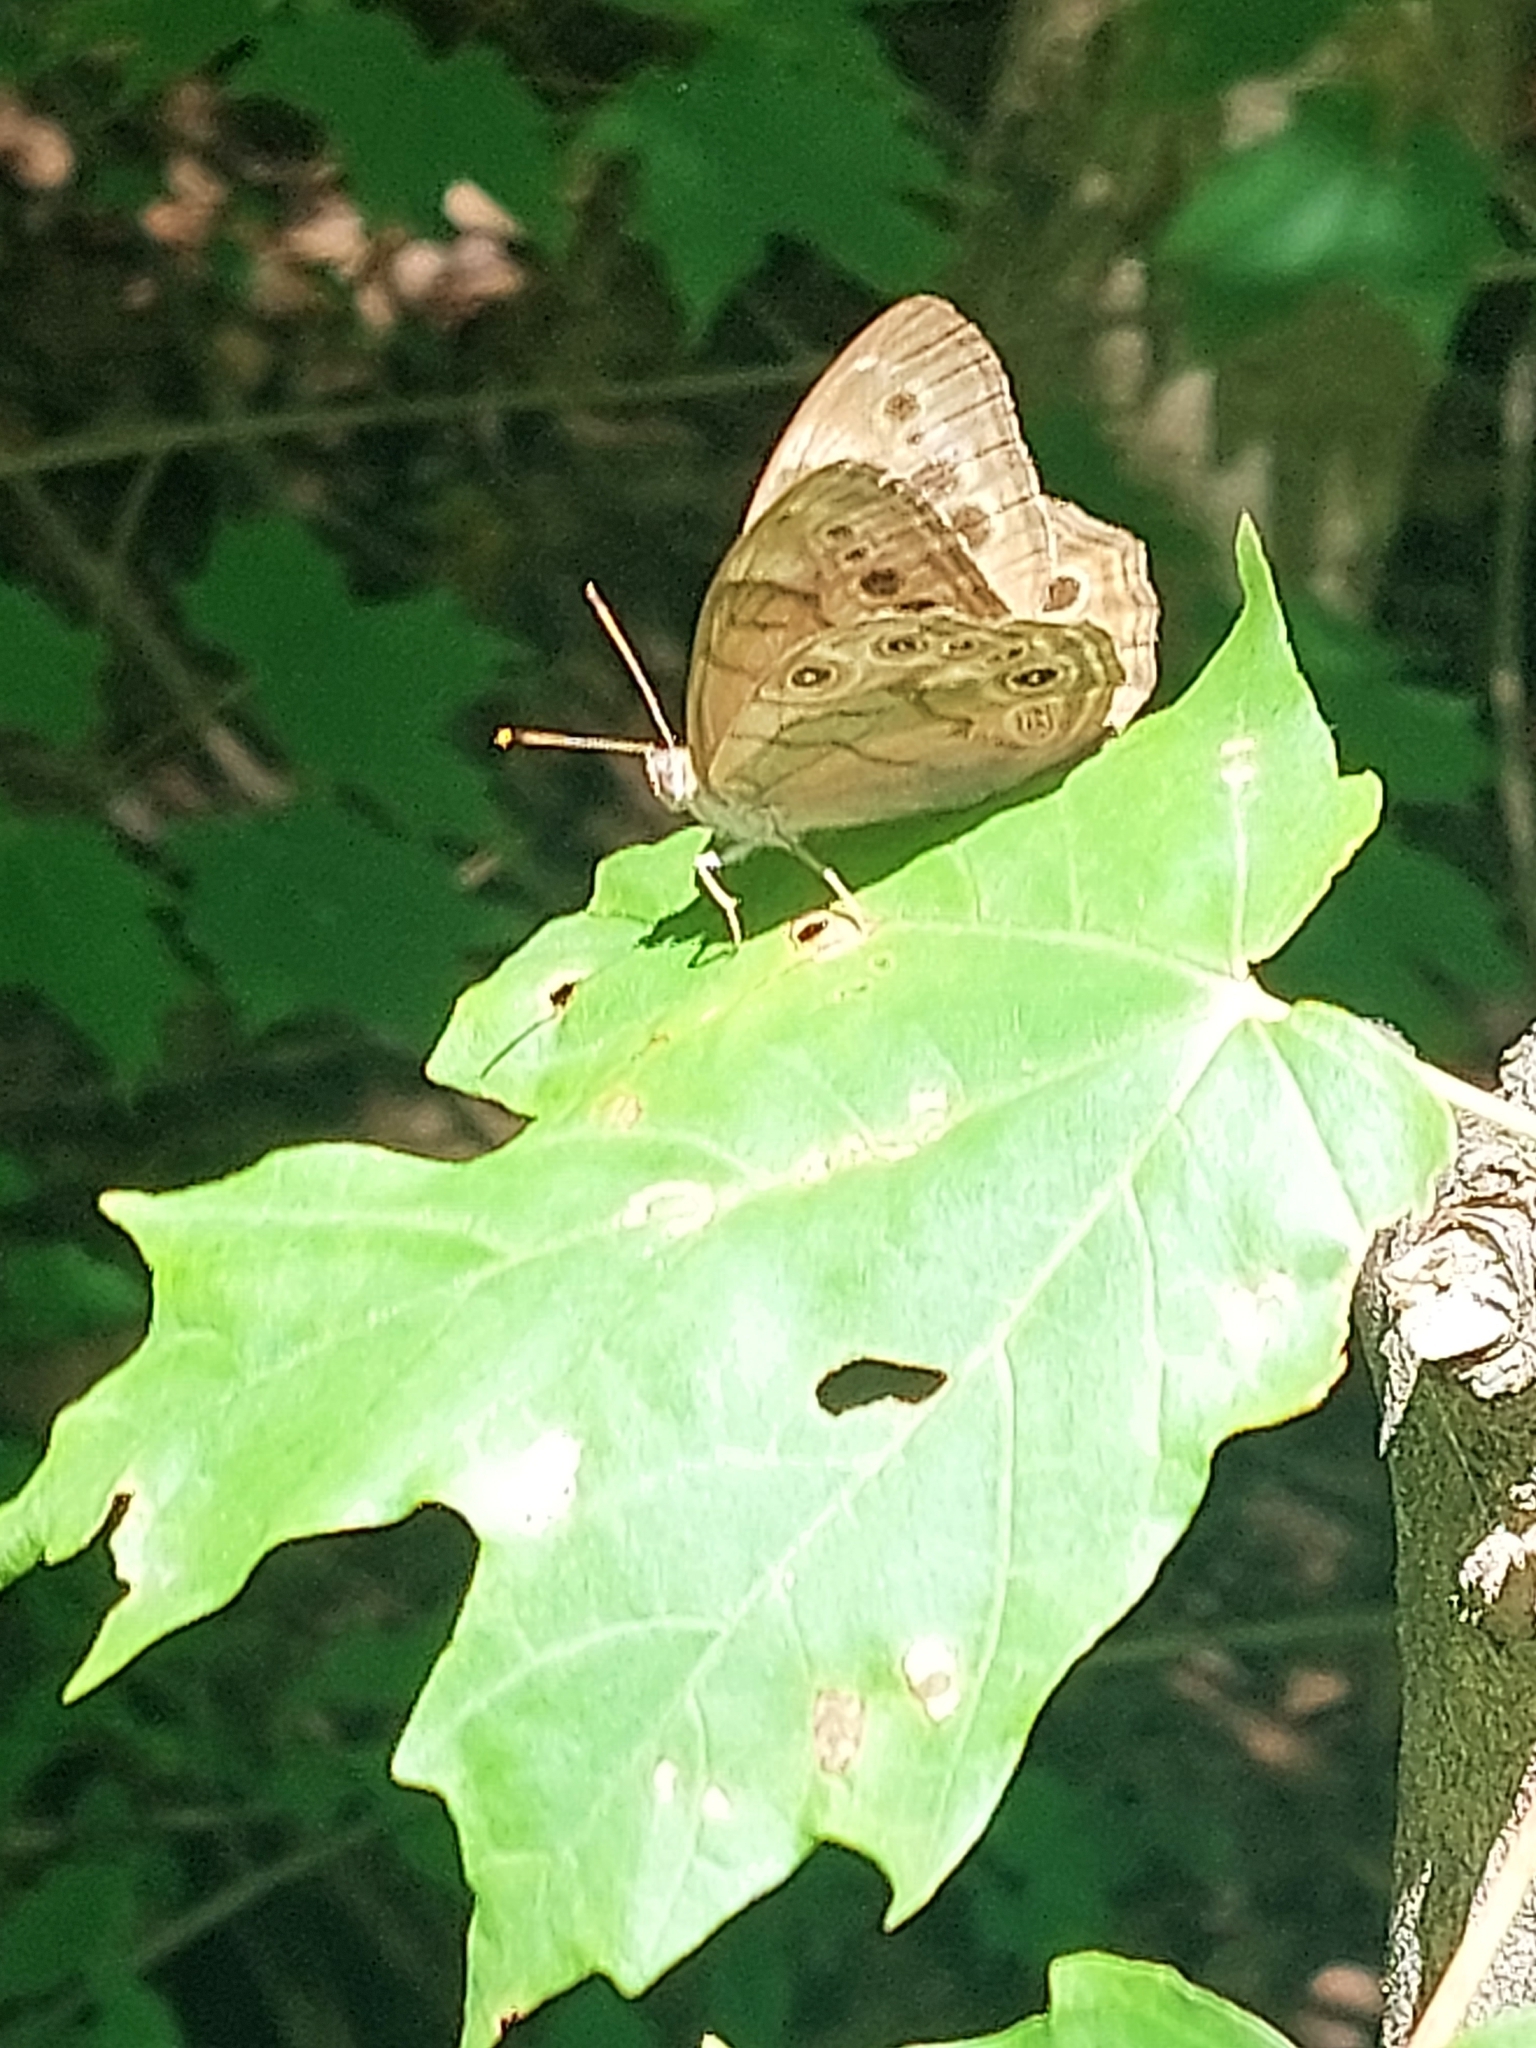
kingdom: Animalia
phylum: Arthropoda
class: Insecta
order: Lepidoptera
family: Nymphalidae
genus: Lethe
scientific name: Lethe anthedon
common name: Northern pearly-eye
